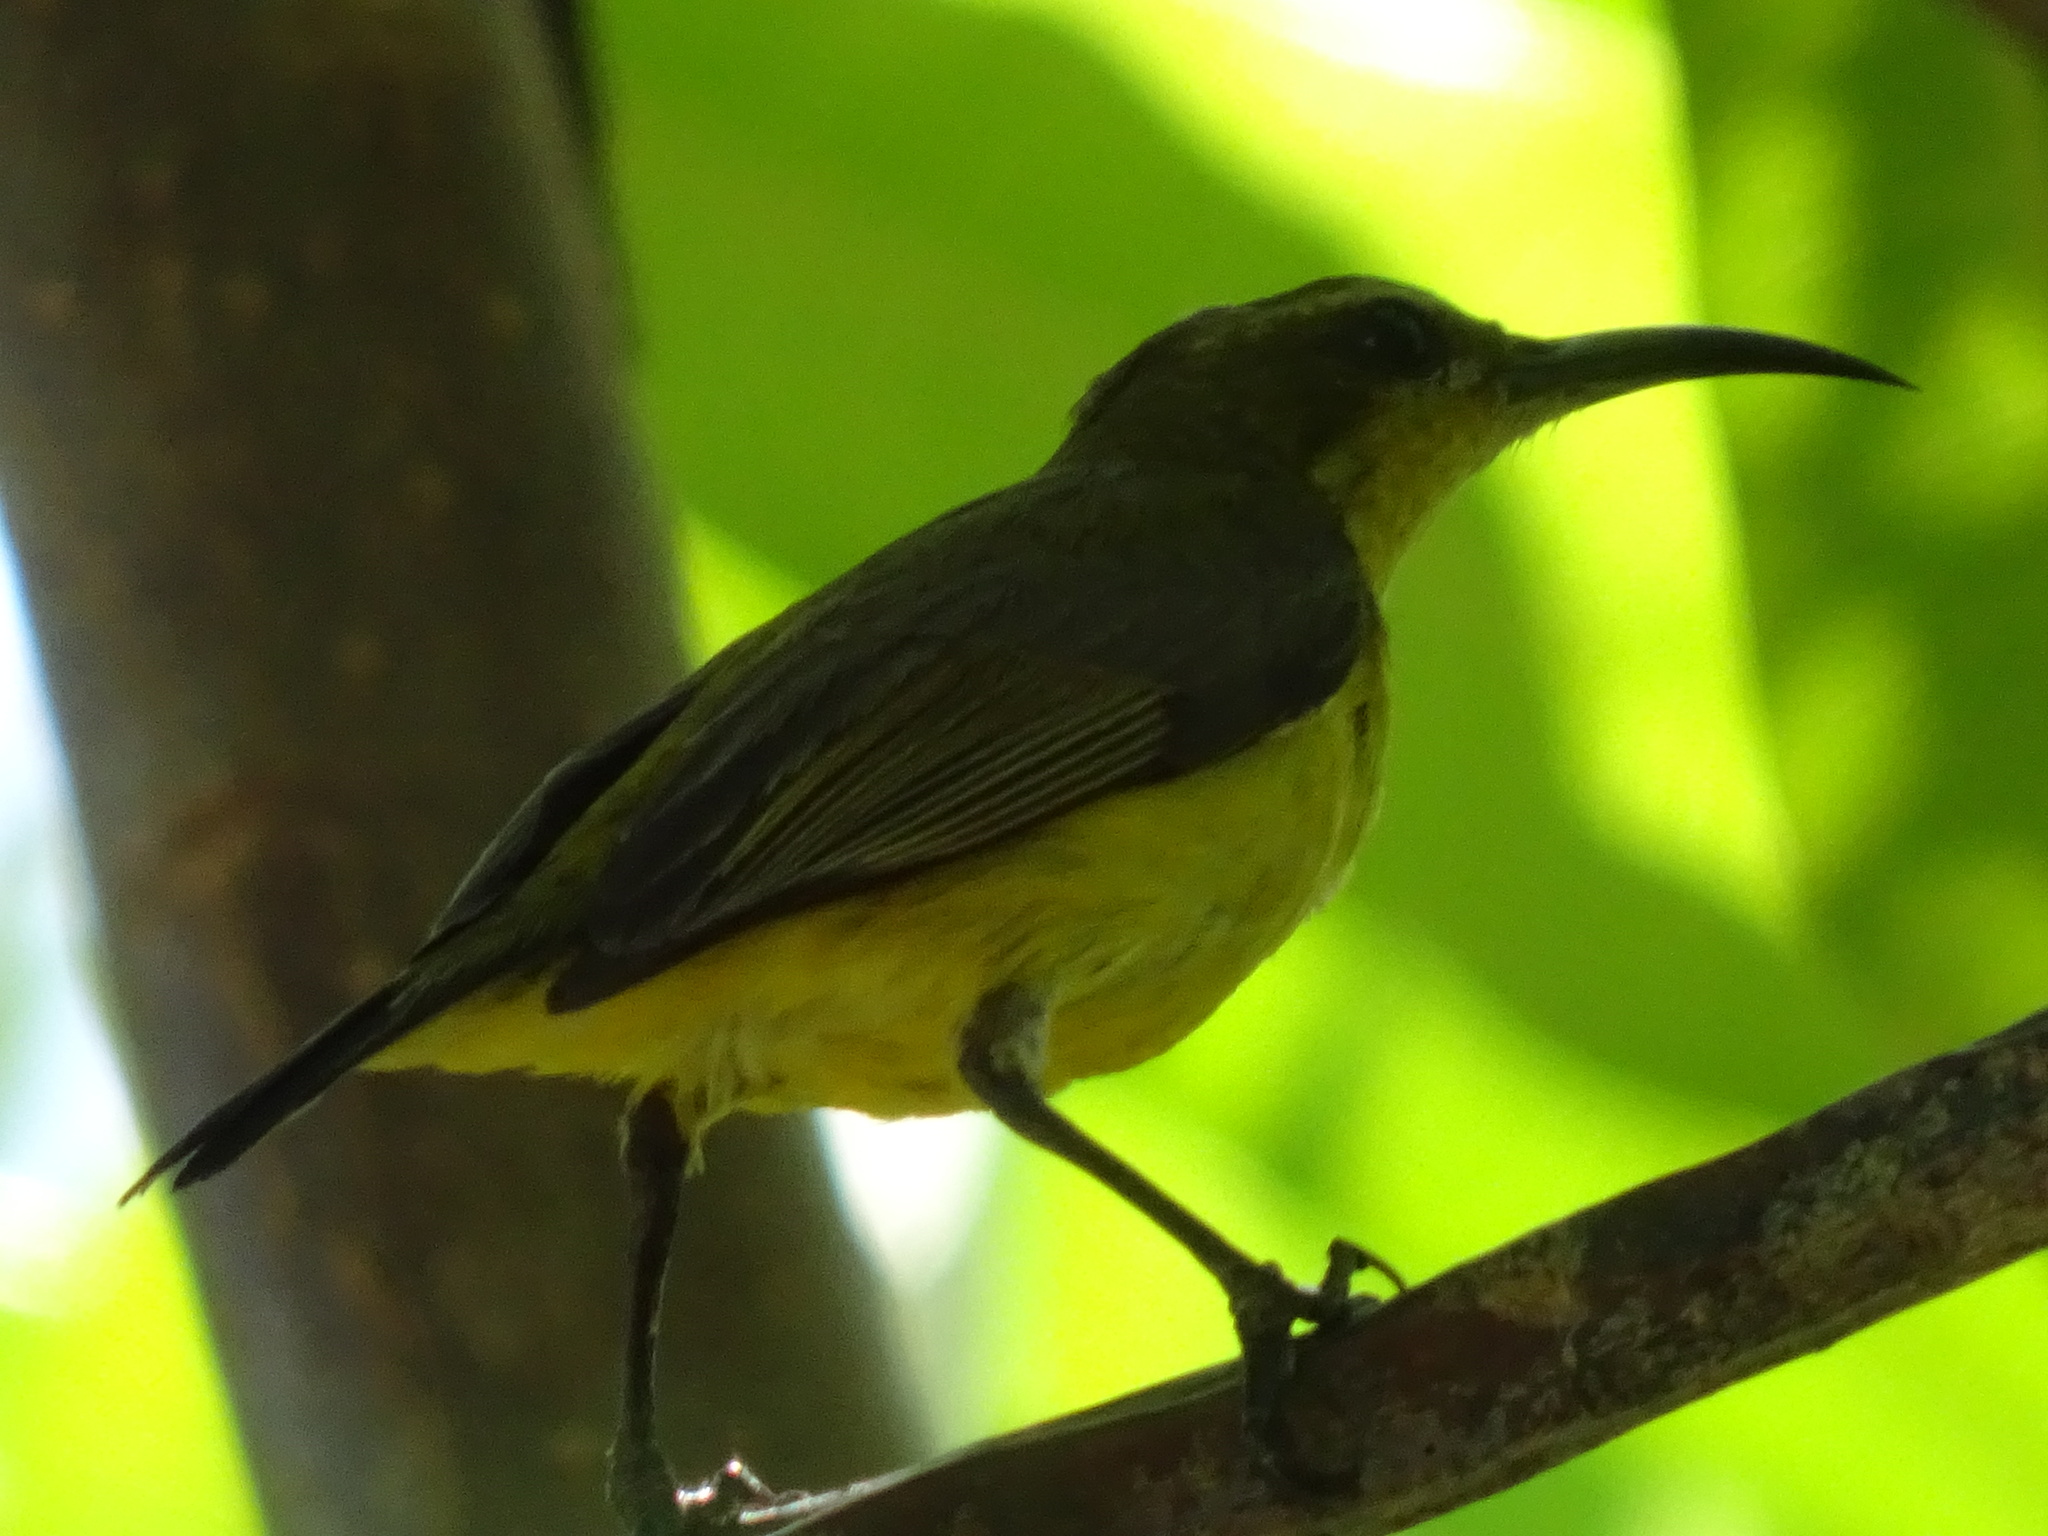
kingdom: Animalia
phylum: Chordata
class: Aves
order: Passeriformes
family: Nectariniidae
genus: Cinnyris
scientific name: Cinnyris
